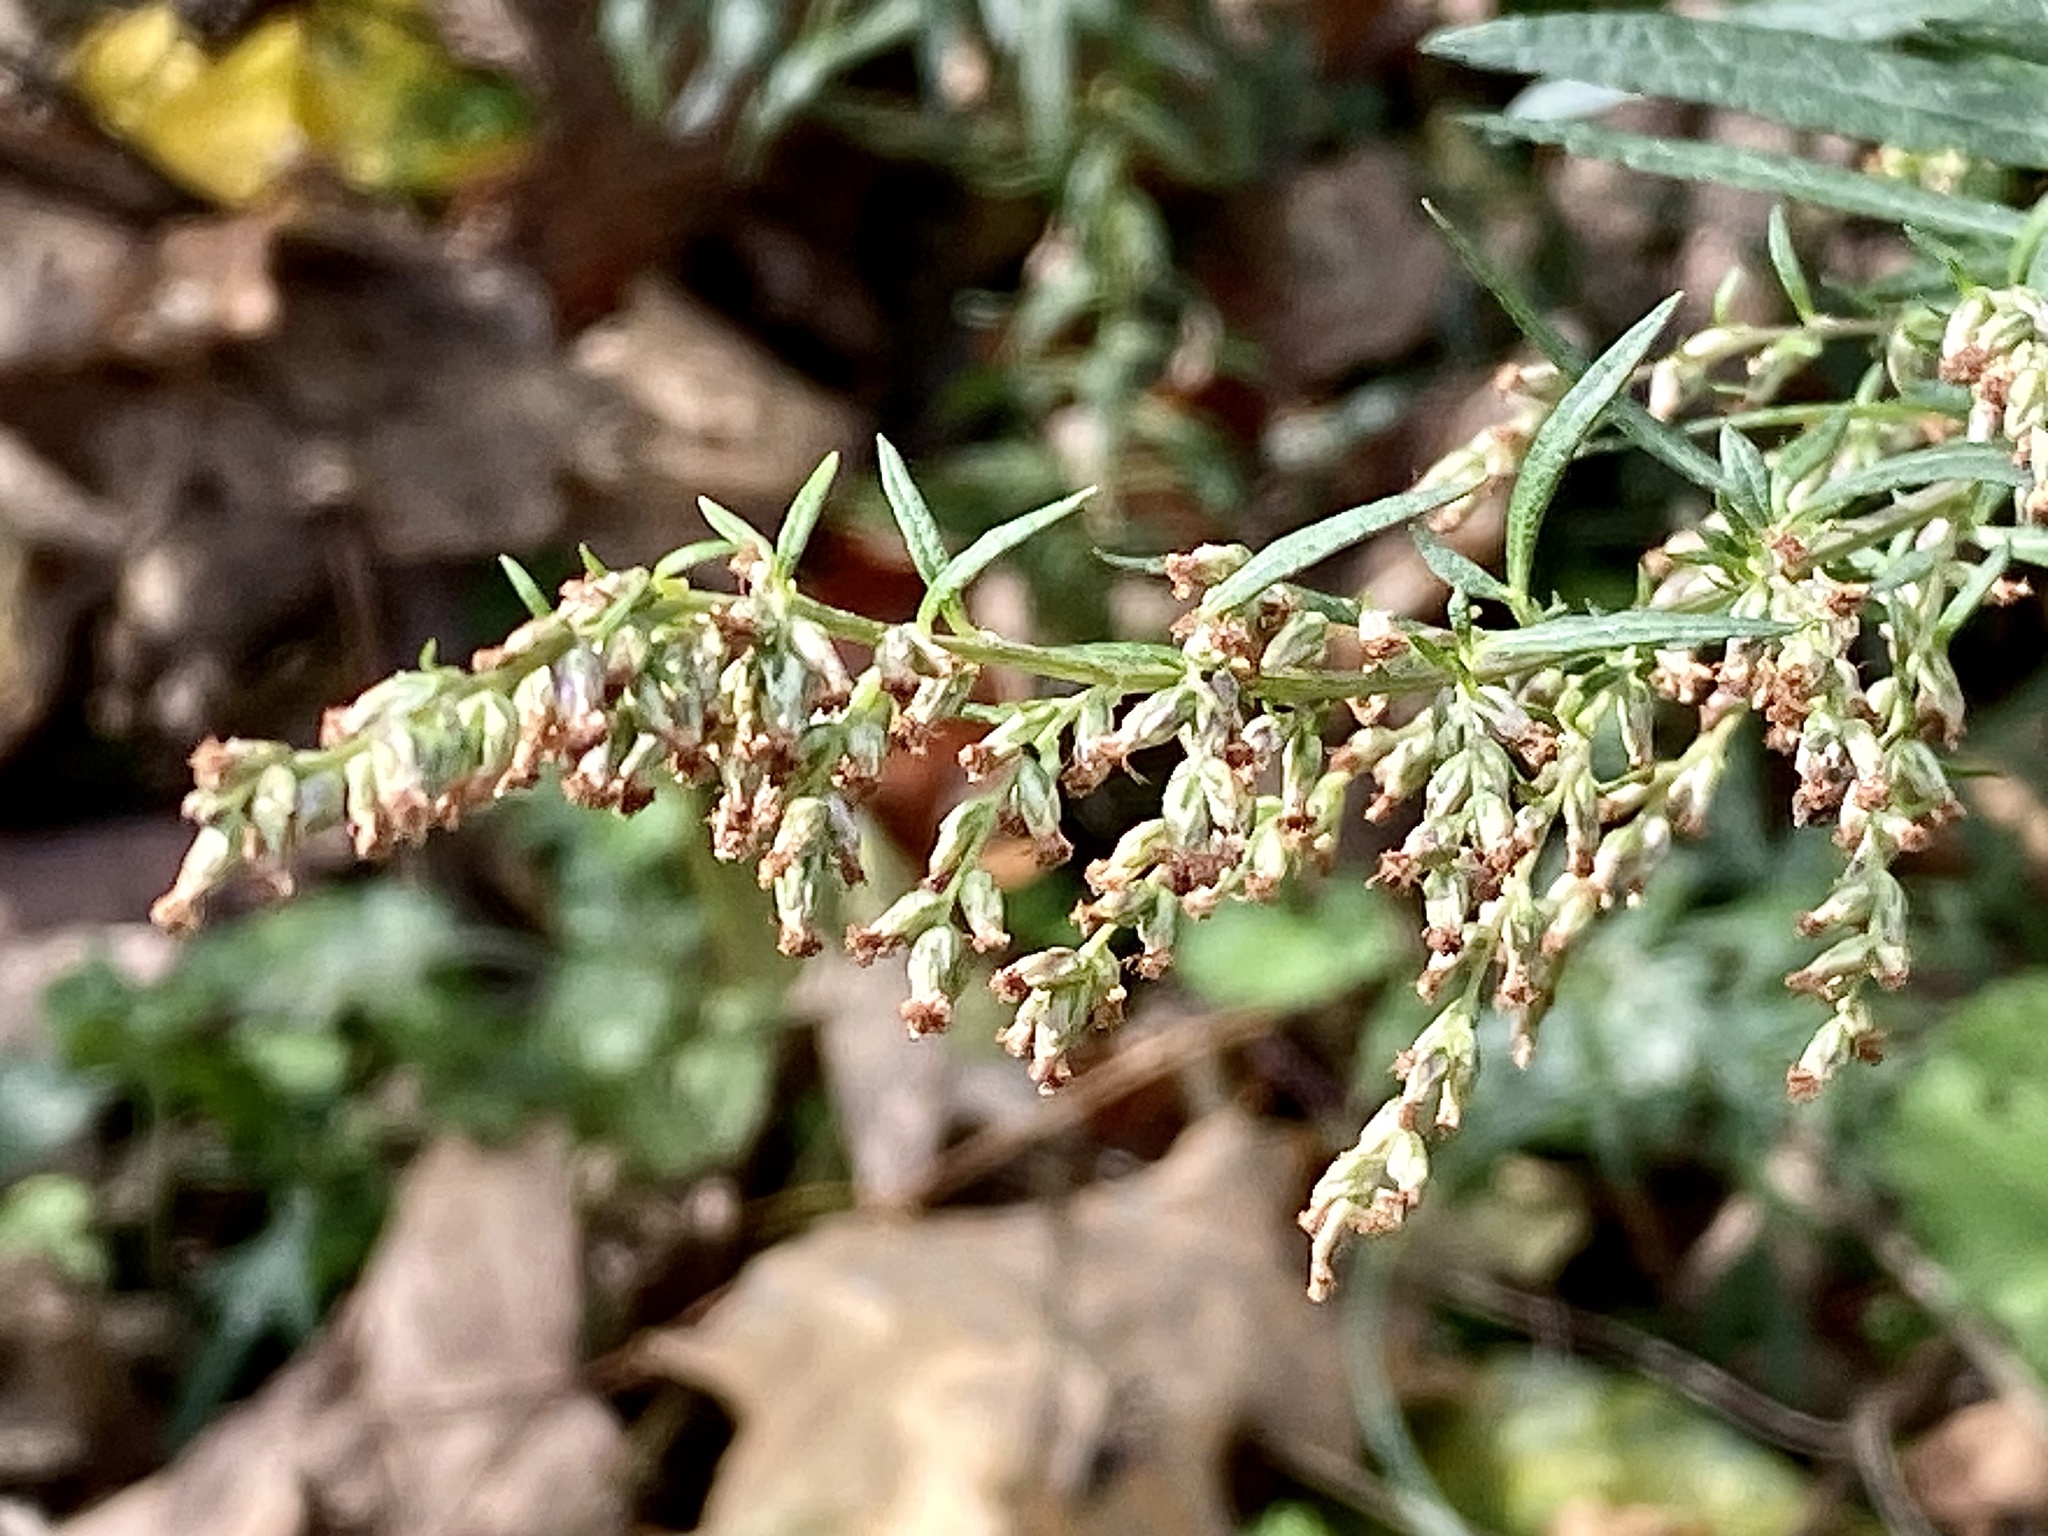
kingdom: Plantae
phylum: Tracheophyta
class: Magnoliopsida
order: Asterales
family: Asteraceae
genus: Artemisia
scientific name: Artemisia vulgaris
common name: Mugwort
